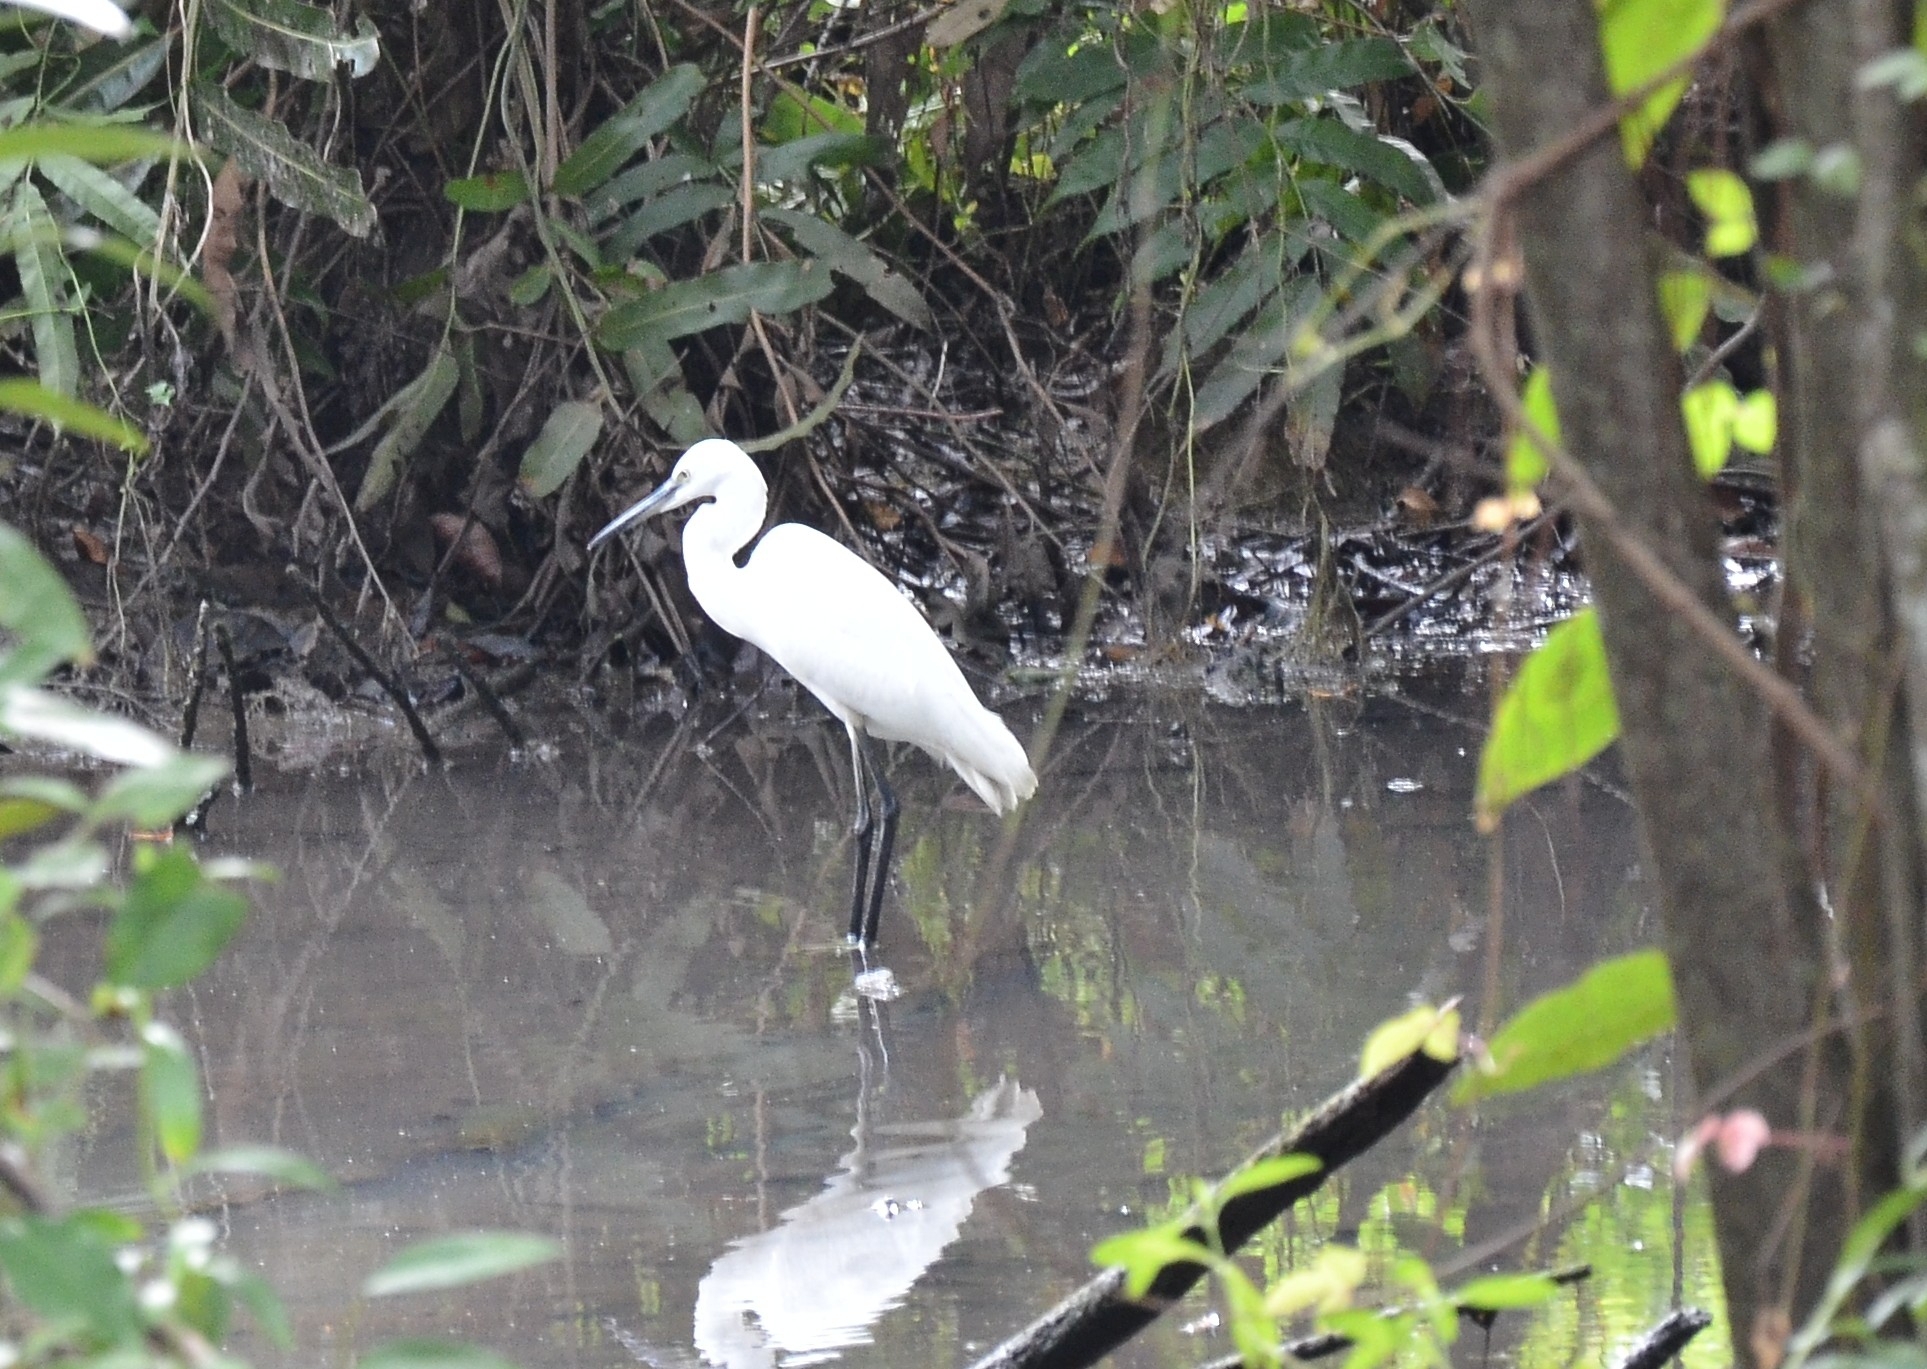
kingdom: Animalia
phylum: Chordata
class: Aves
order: Pelecaniformes
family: Ardeidae
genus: Egretta
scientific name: Egretta garzetta
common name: Little egret
